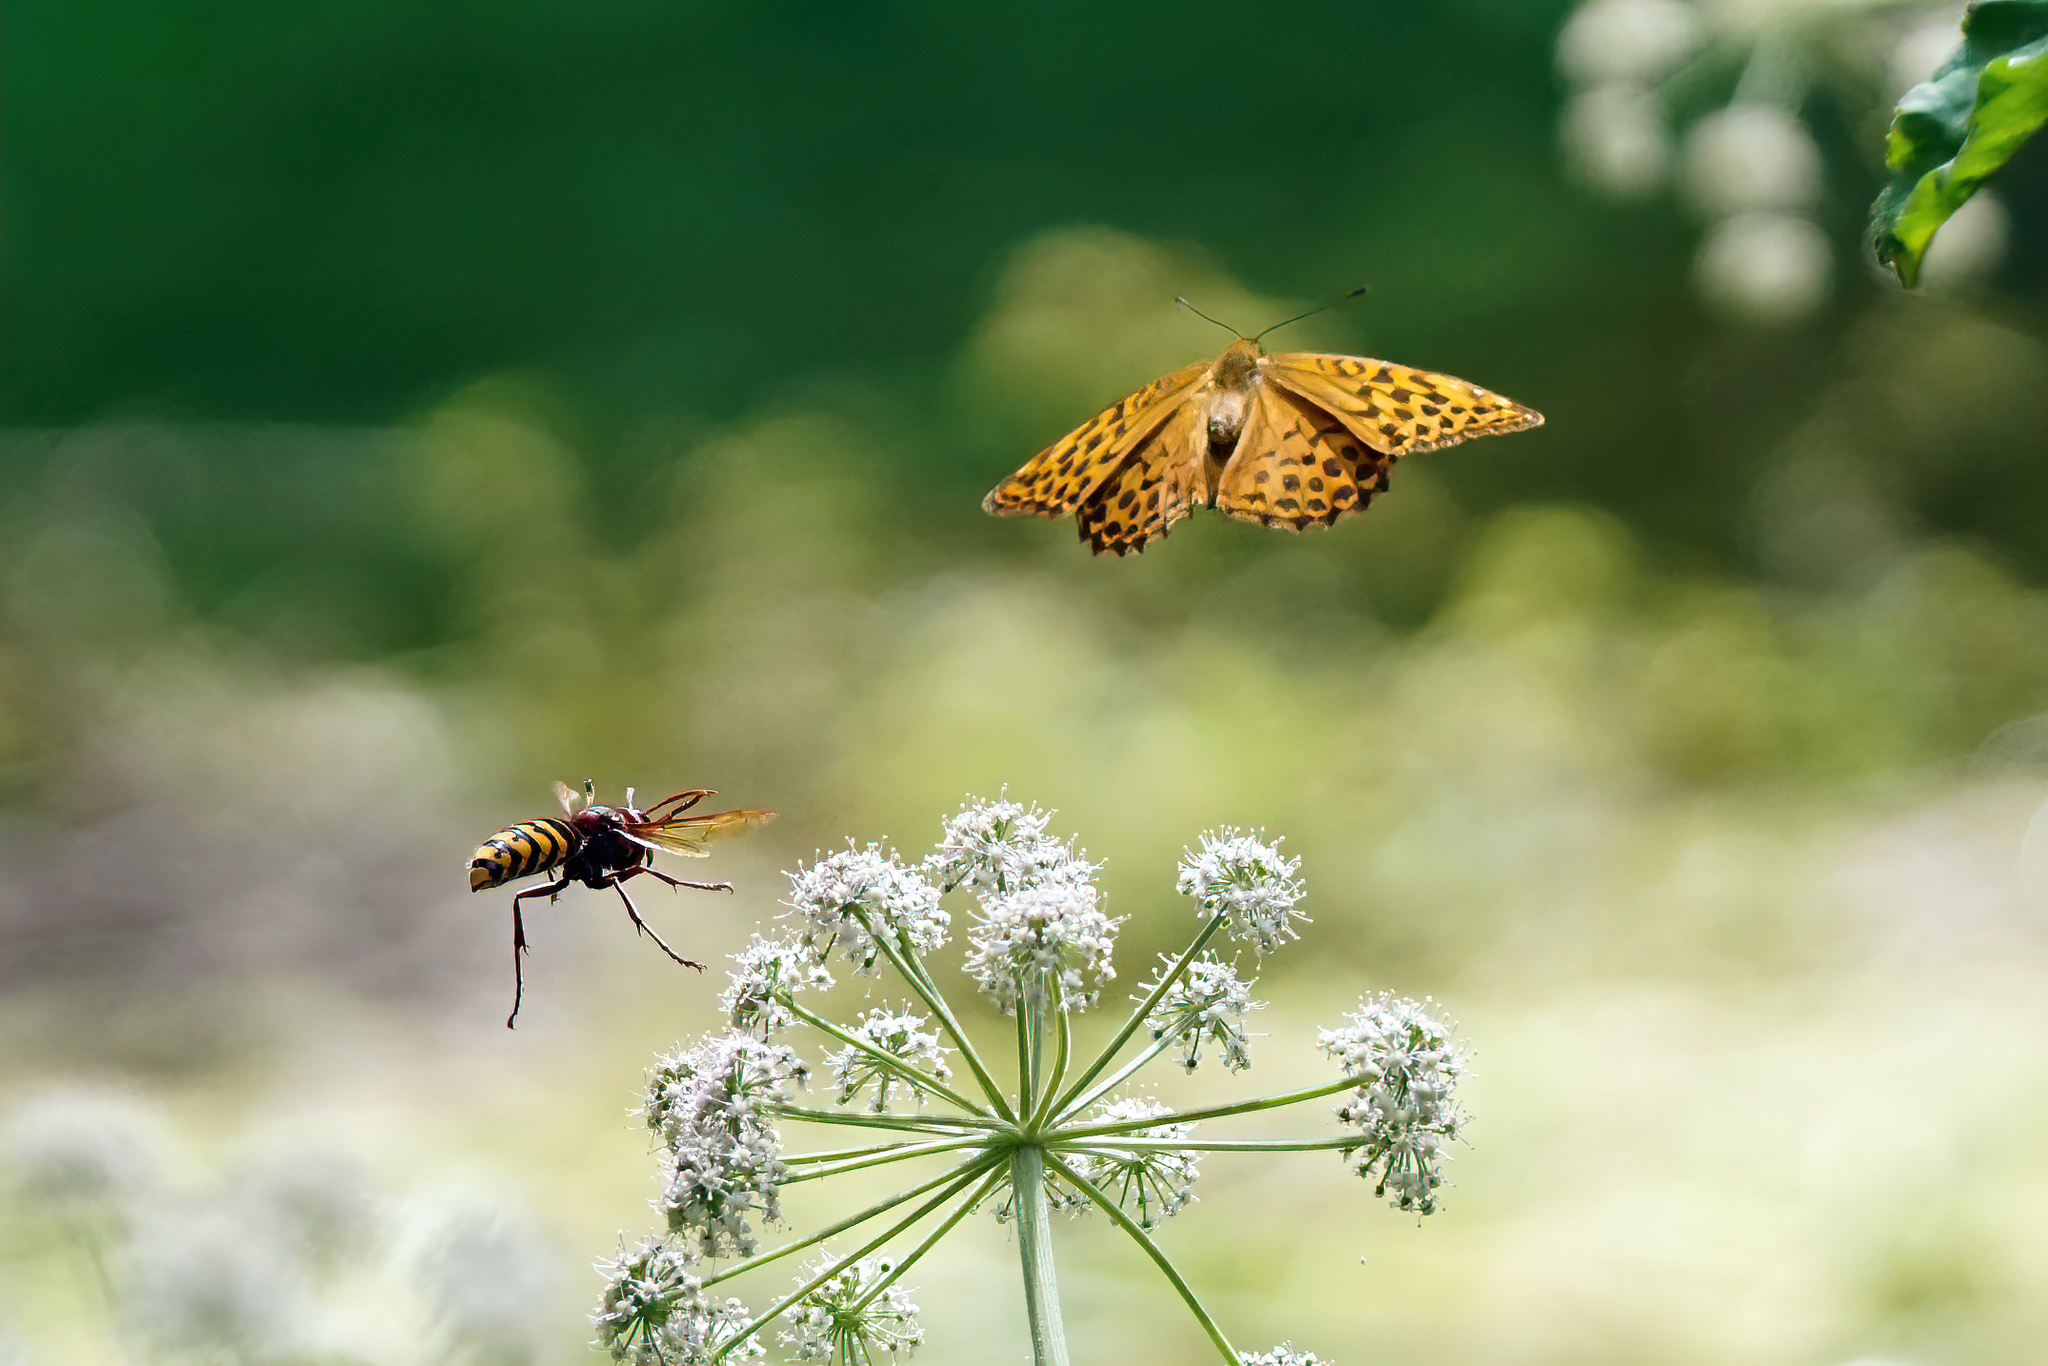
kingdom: Animalia
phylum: Arthropoda
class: Insecta
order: Lepidoptera
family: Nymphalidae
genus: Argynnis
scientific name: Argynnis paphia
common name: Silver-washed fritillary
